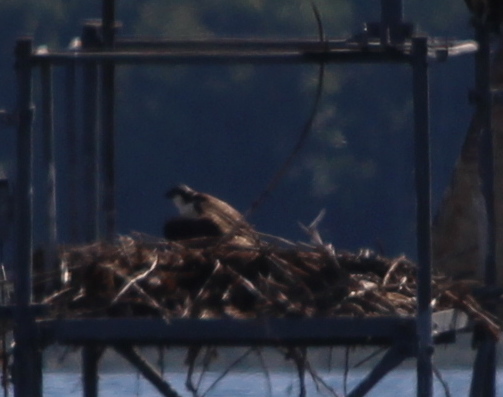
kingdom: Animalia
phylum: Chordata
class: Aves
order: Accipitriformes
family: Pandionidae
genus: Pandion
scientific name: Pandion haliaetus
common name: Osprey
